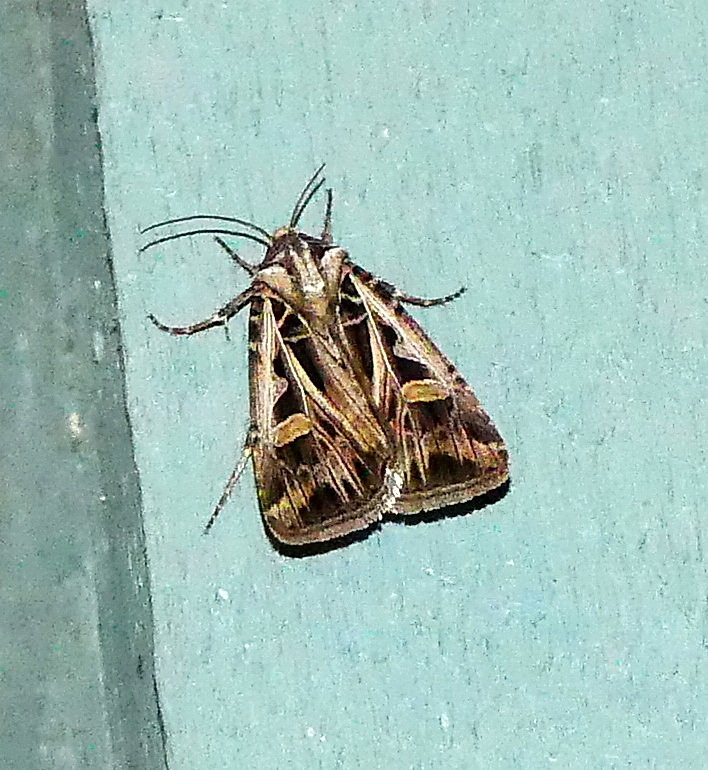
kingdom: Animalia
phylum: Arthropoda
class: Insecta
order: Lepidoptera
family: Noctuidae
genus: Feltia
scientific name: Feltia jaculifera
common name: Dingy cutworm moth
